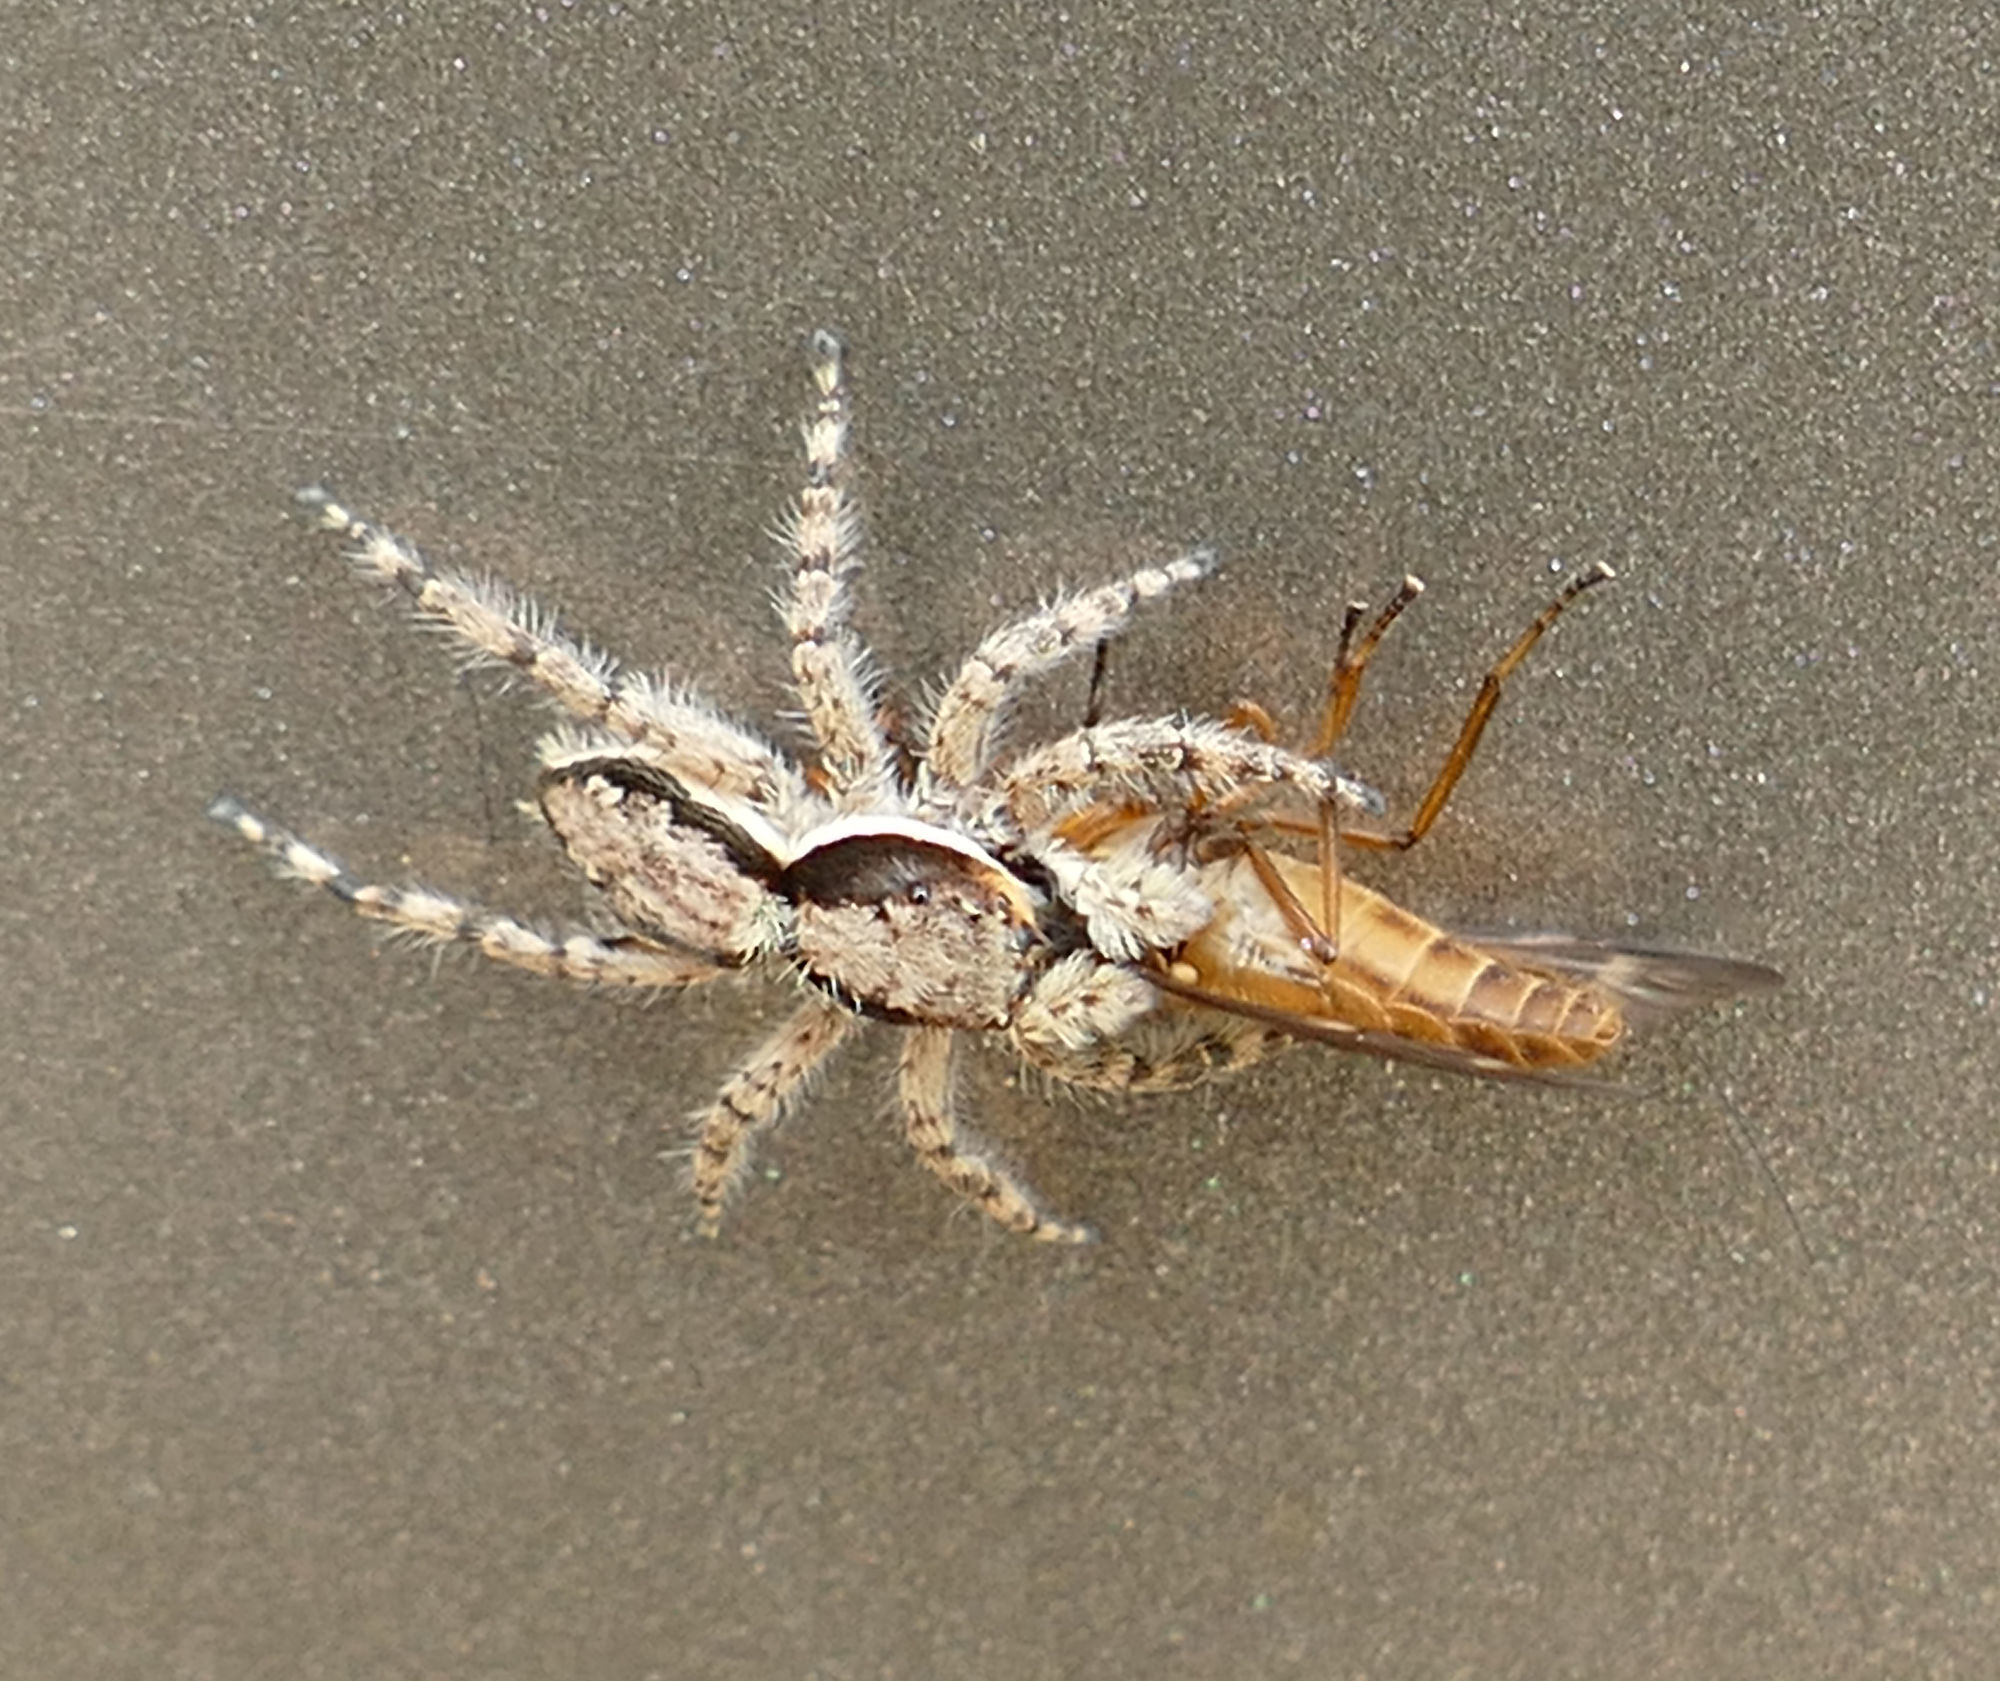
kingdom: Animalia
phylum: Arthropoda
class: Arachnida
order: Araneae
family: Salticidae
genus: Menemerus
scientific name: Menemerus bivittatus
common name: Gray wall jumper
